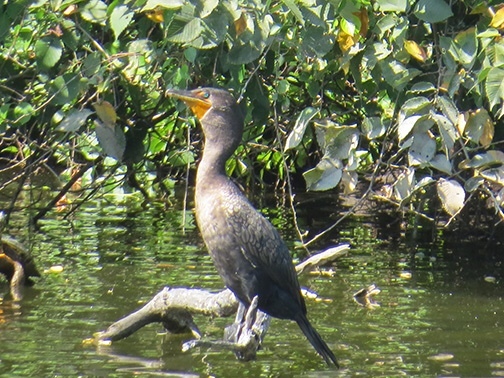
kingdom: Animalia
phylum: Chordata
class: Aves
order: Suliformes
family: Phalacrocoracidae
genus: Phalacrocorax
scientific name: Phalacrocorax auritus
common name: Double-crested cormorant
